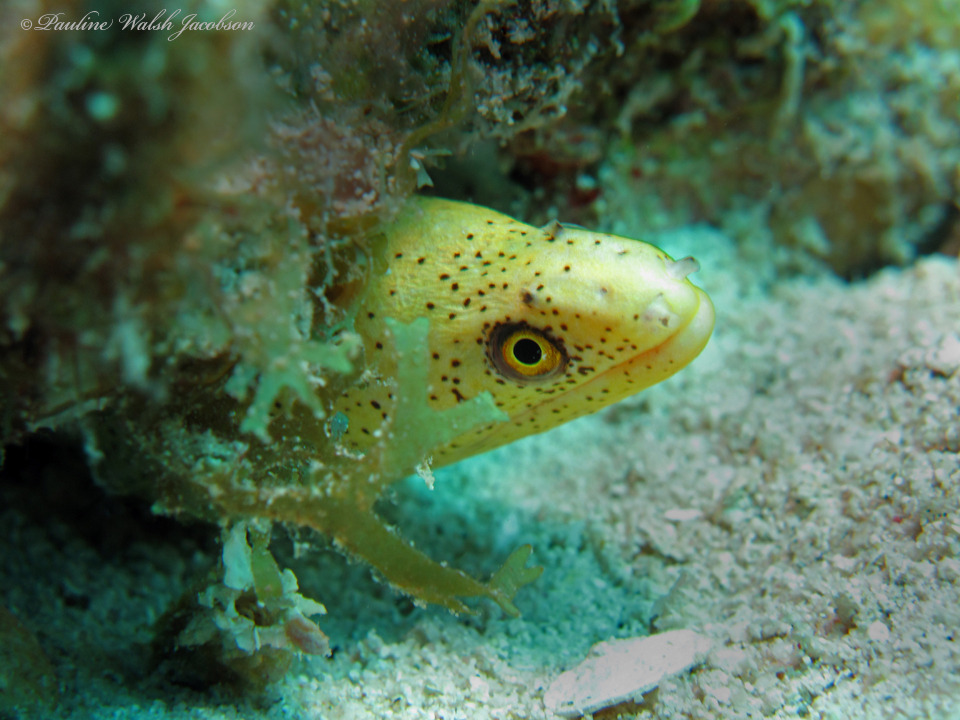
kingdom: Animalia
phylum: Chordata
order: Anguilliformes
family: Muraenidae
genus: Gymnothorax
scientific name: Gymnothorax miliaris
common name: Goldentail moray
